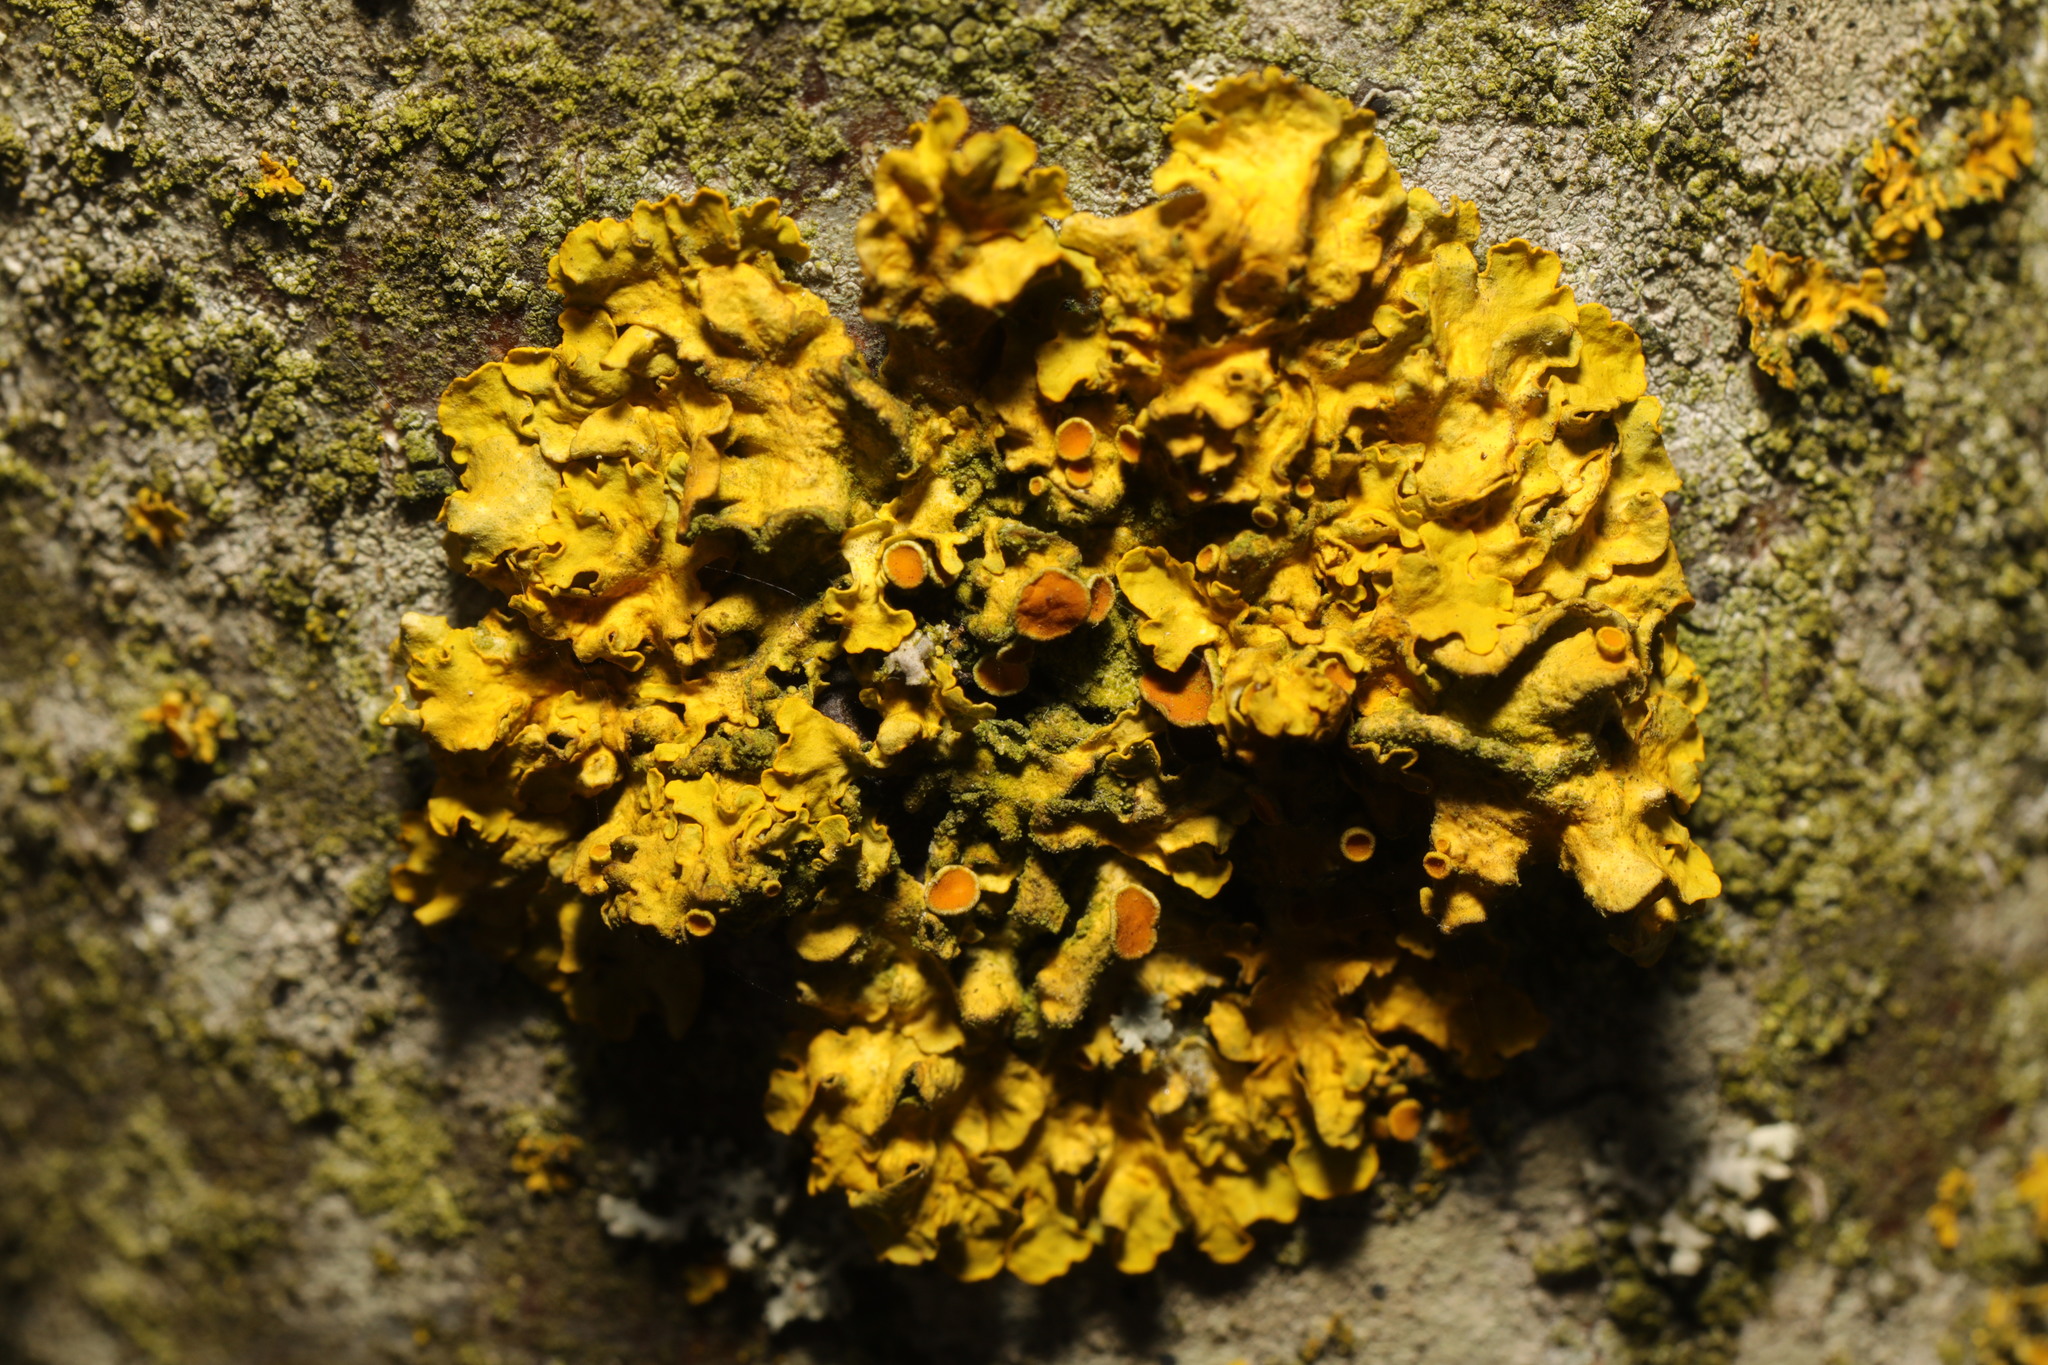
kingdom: Fungi
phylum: Ascomycota
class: Lecanoromycetes
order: Teloschistales
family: Teloschistaceae
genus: Xanthoria
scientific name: Xanthoria parietina
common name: Common orange lichen
